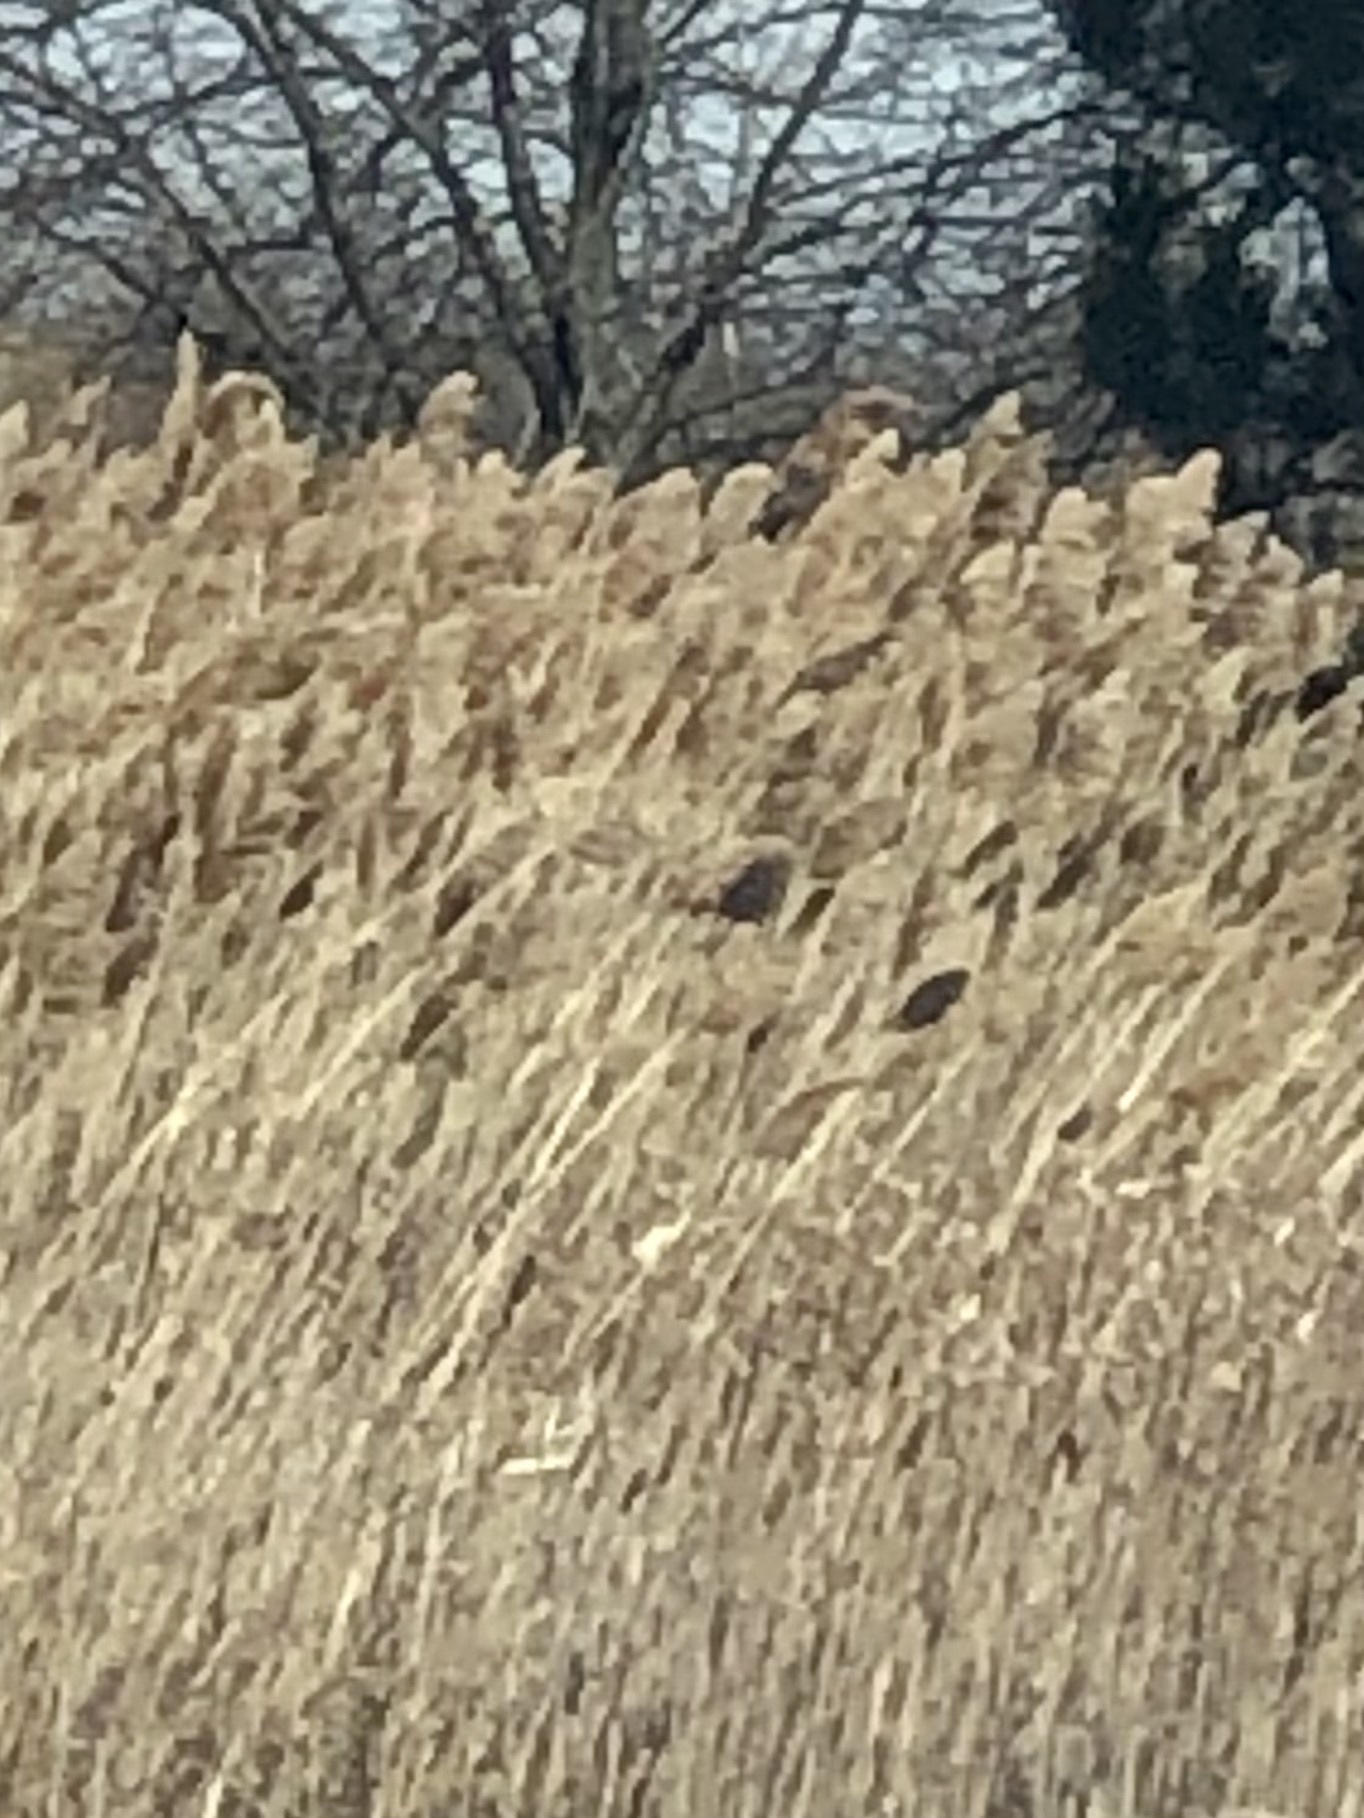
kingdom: Plantae
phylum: Tracheophyta
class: Liliopsida
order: Poales
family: Poaceae
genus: Phragmites
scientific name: Phragmites australis
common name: Common reed
